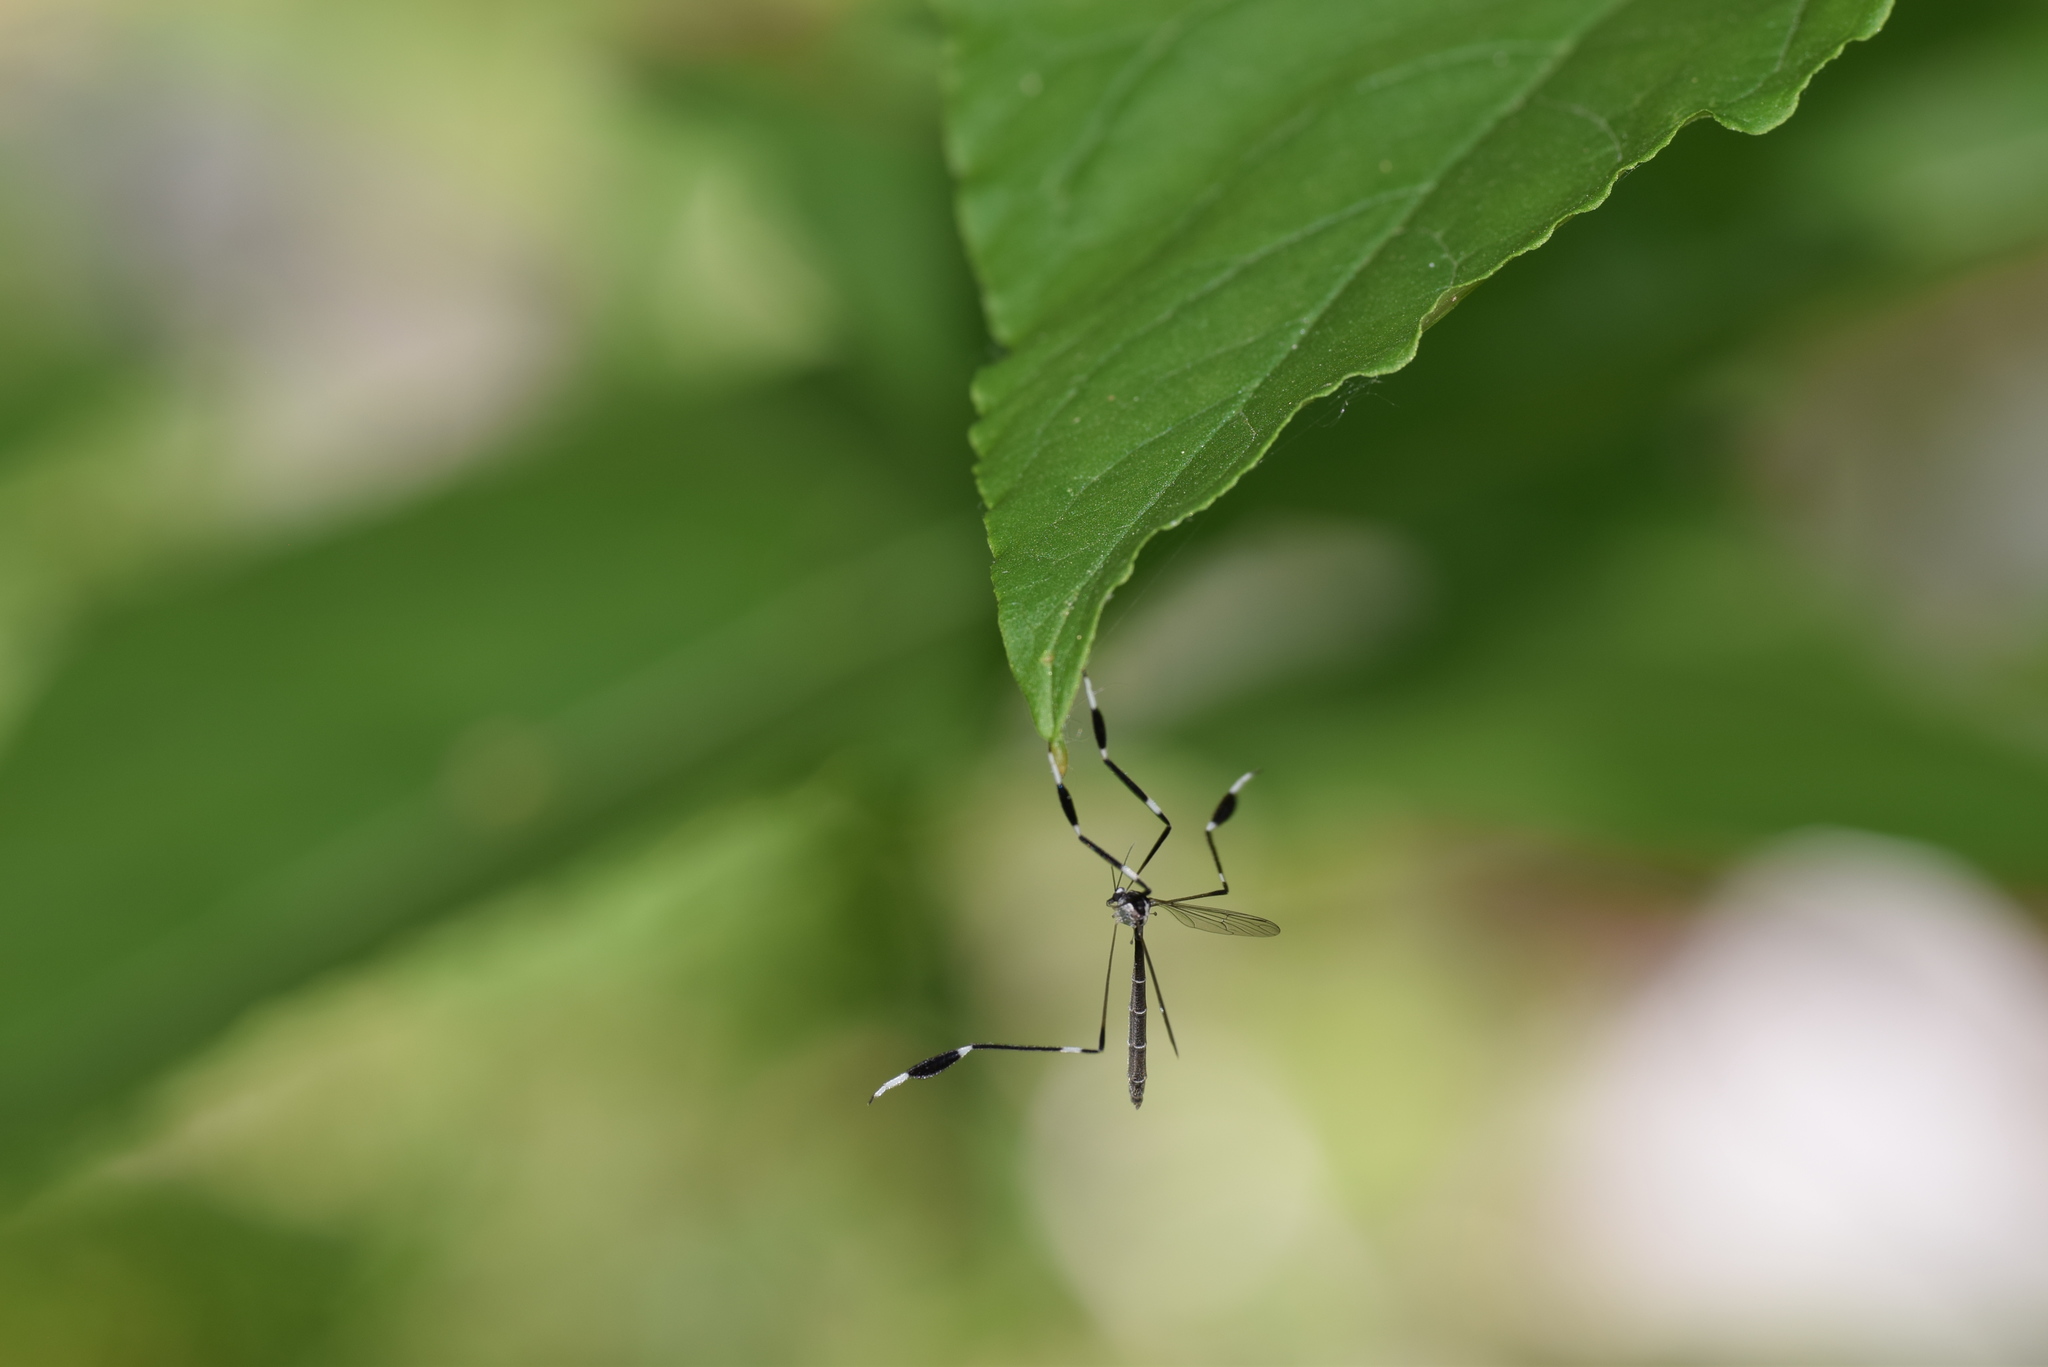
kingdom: Animalia
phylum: Arthropoda
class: Insecta
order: Diptera
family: Ptychopteridae
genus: Bittacomorpha
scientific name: Bittacomorpha clavipes
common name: Eastern phantom crane fly
